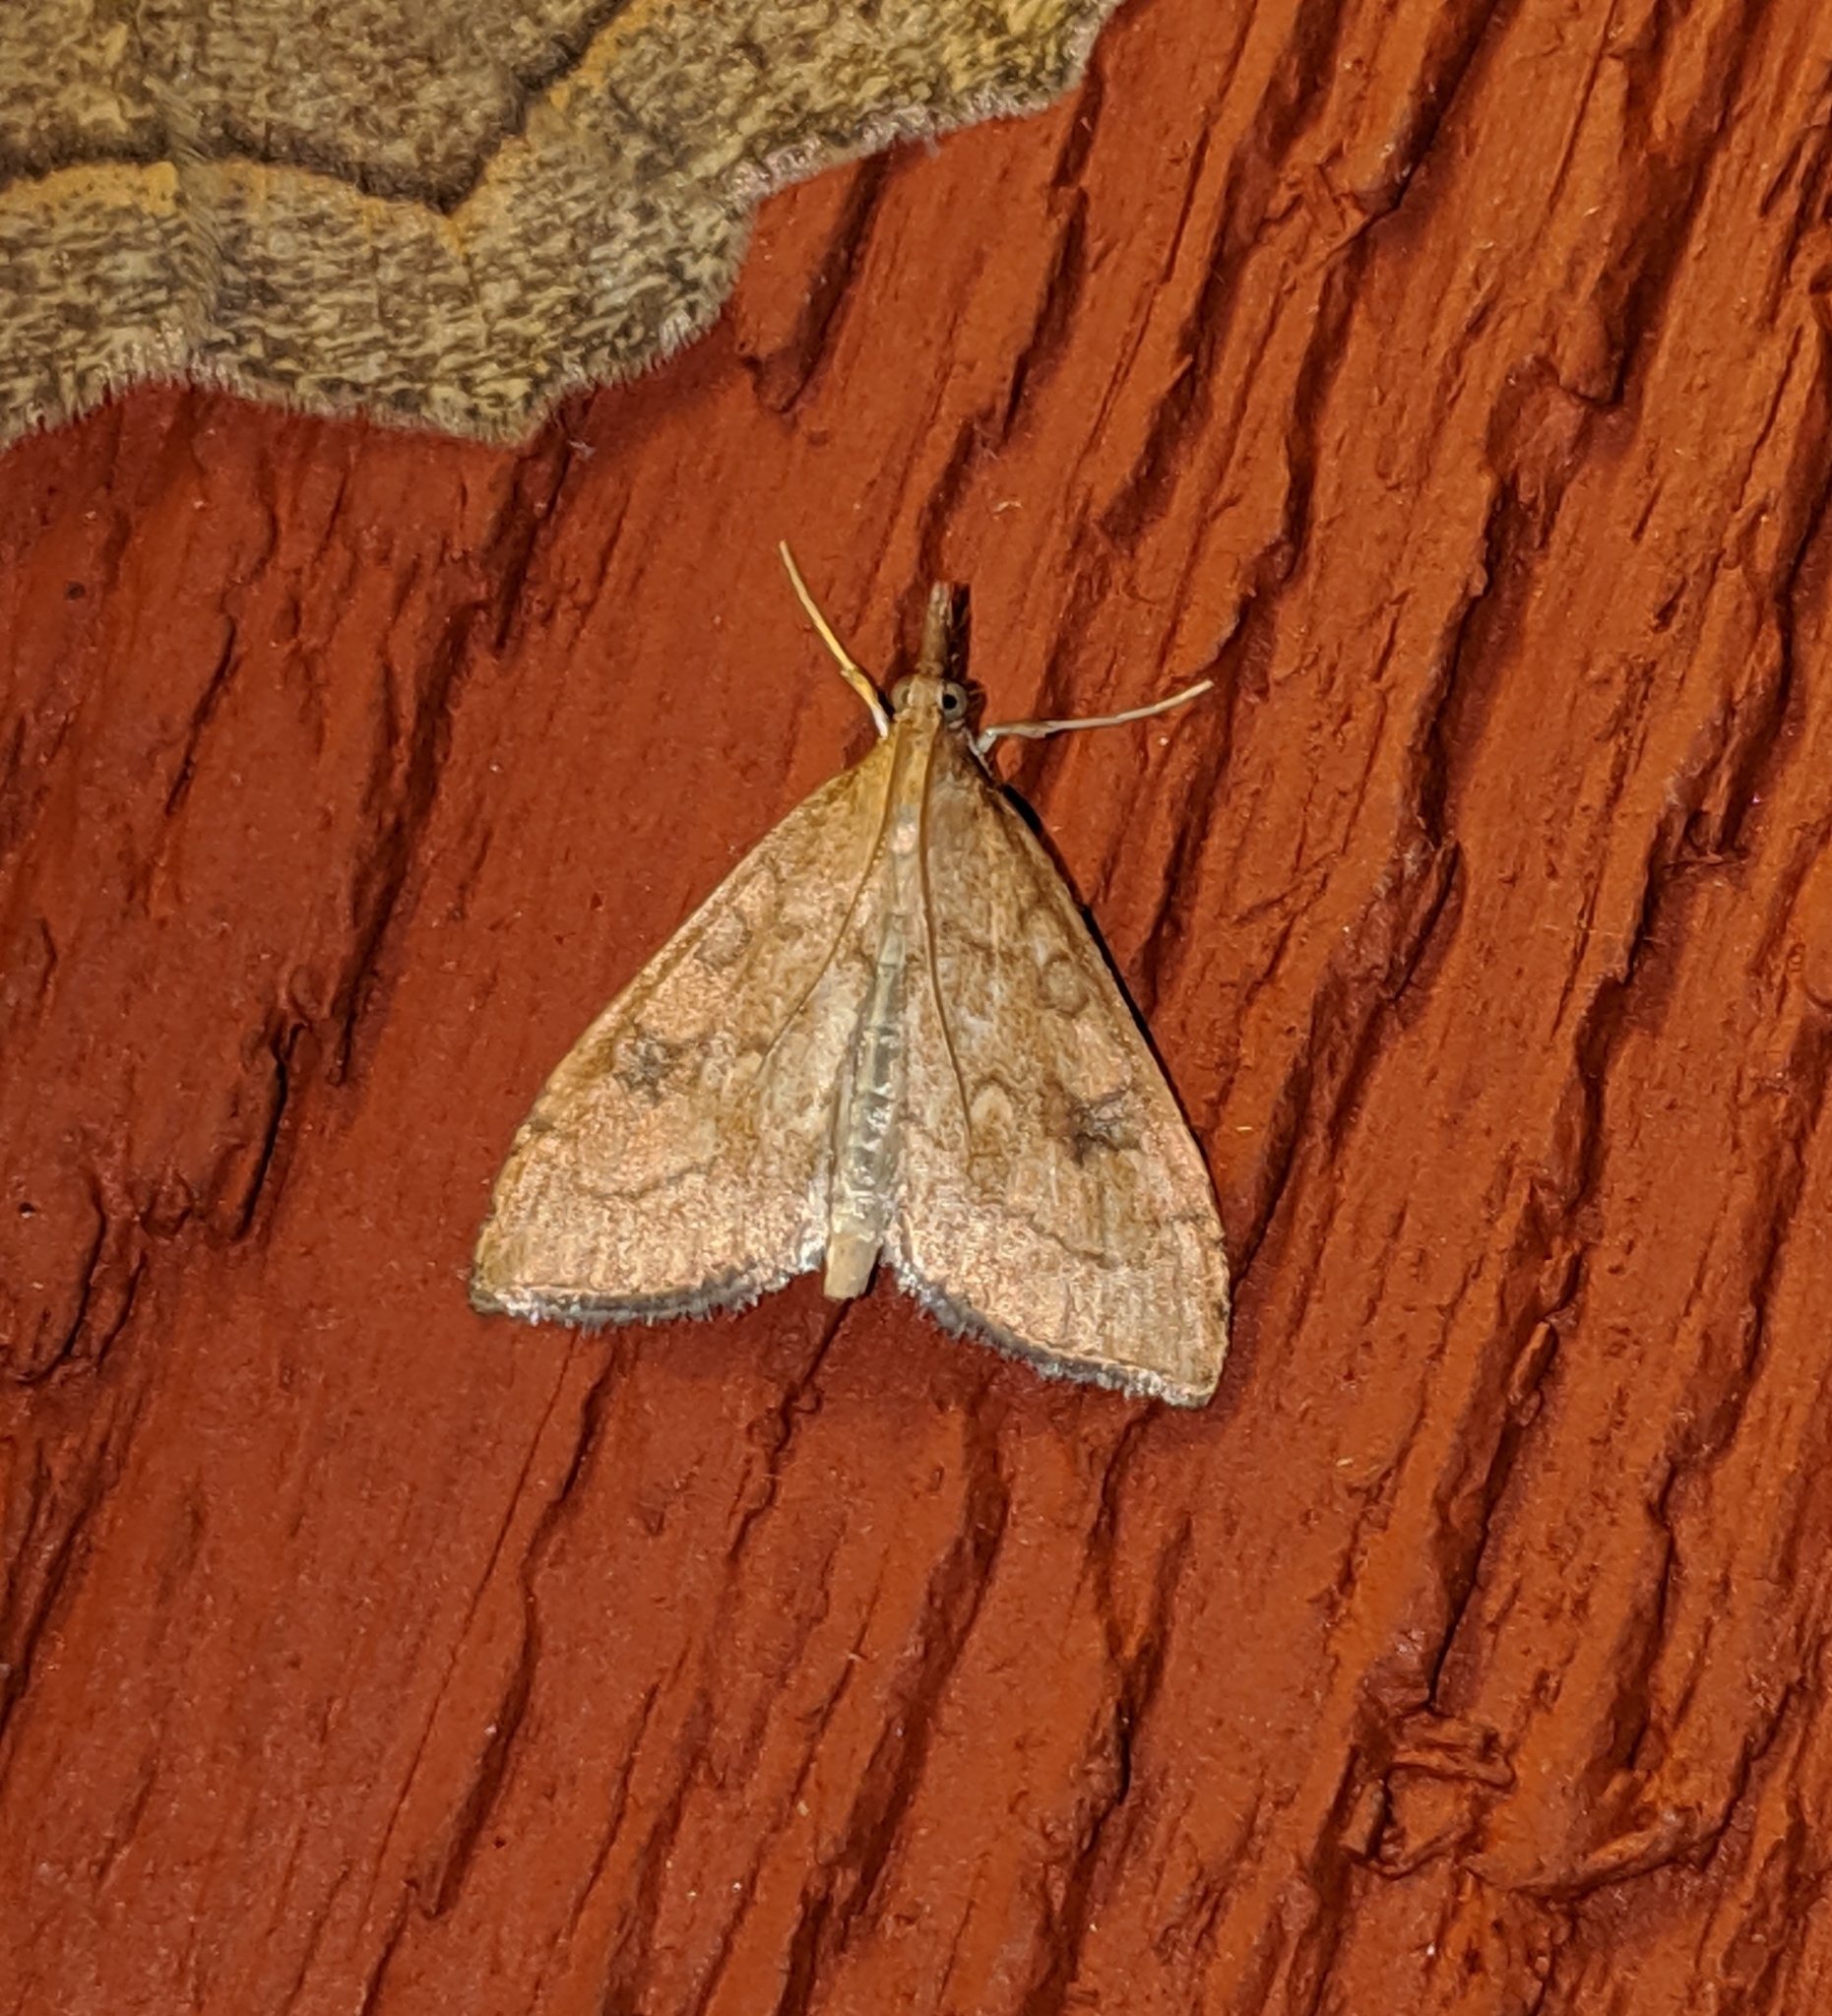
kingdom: Animalia
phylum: Arthropoda
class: Insecta
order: Lepidoptera
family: Crambidae
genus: Udea
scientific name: Udea profundalis
